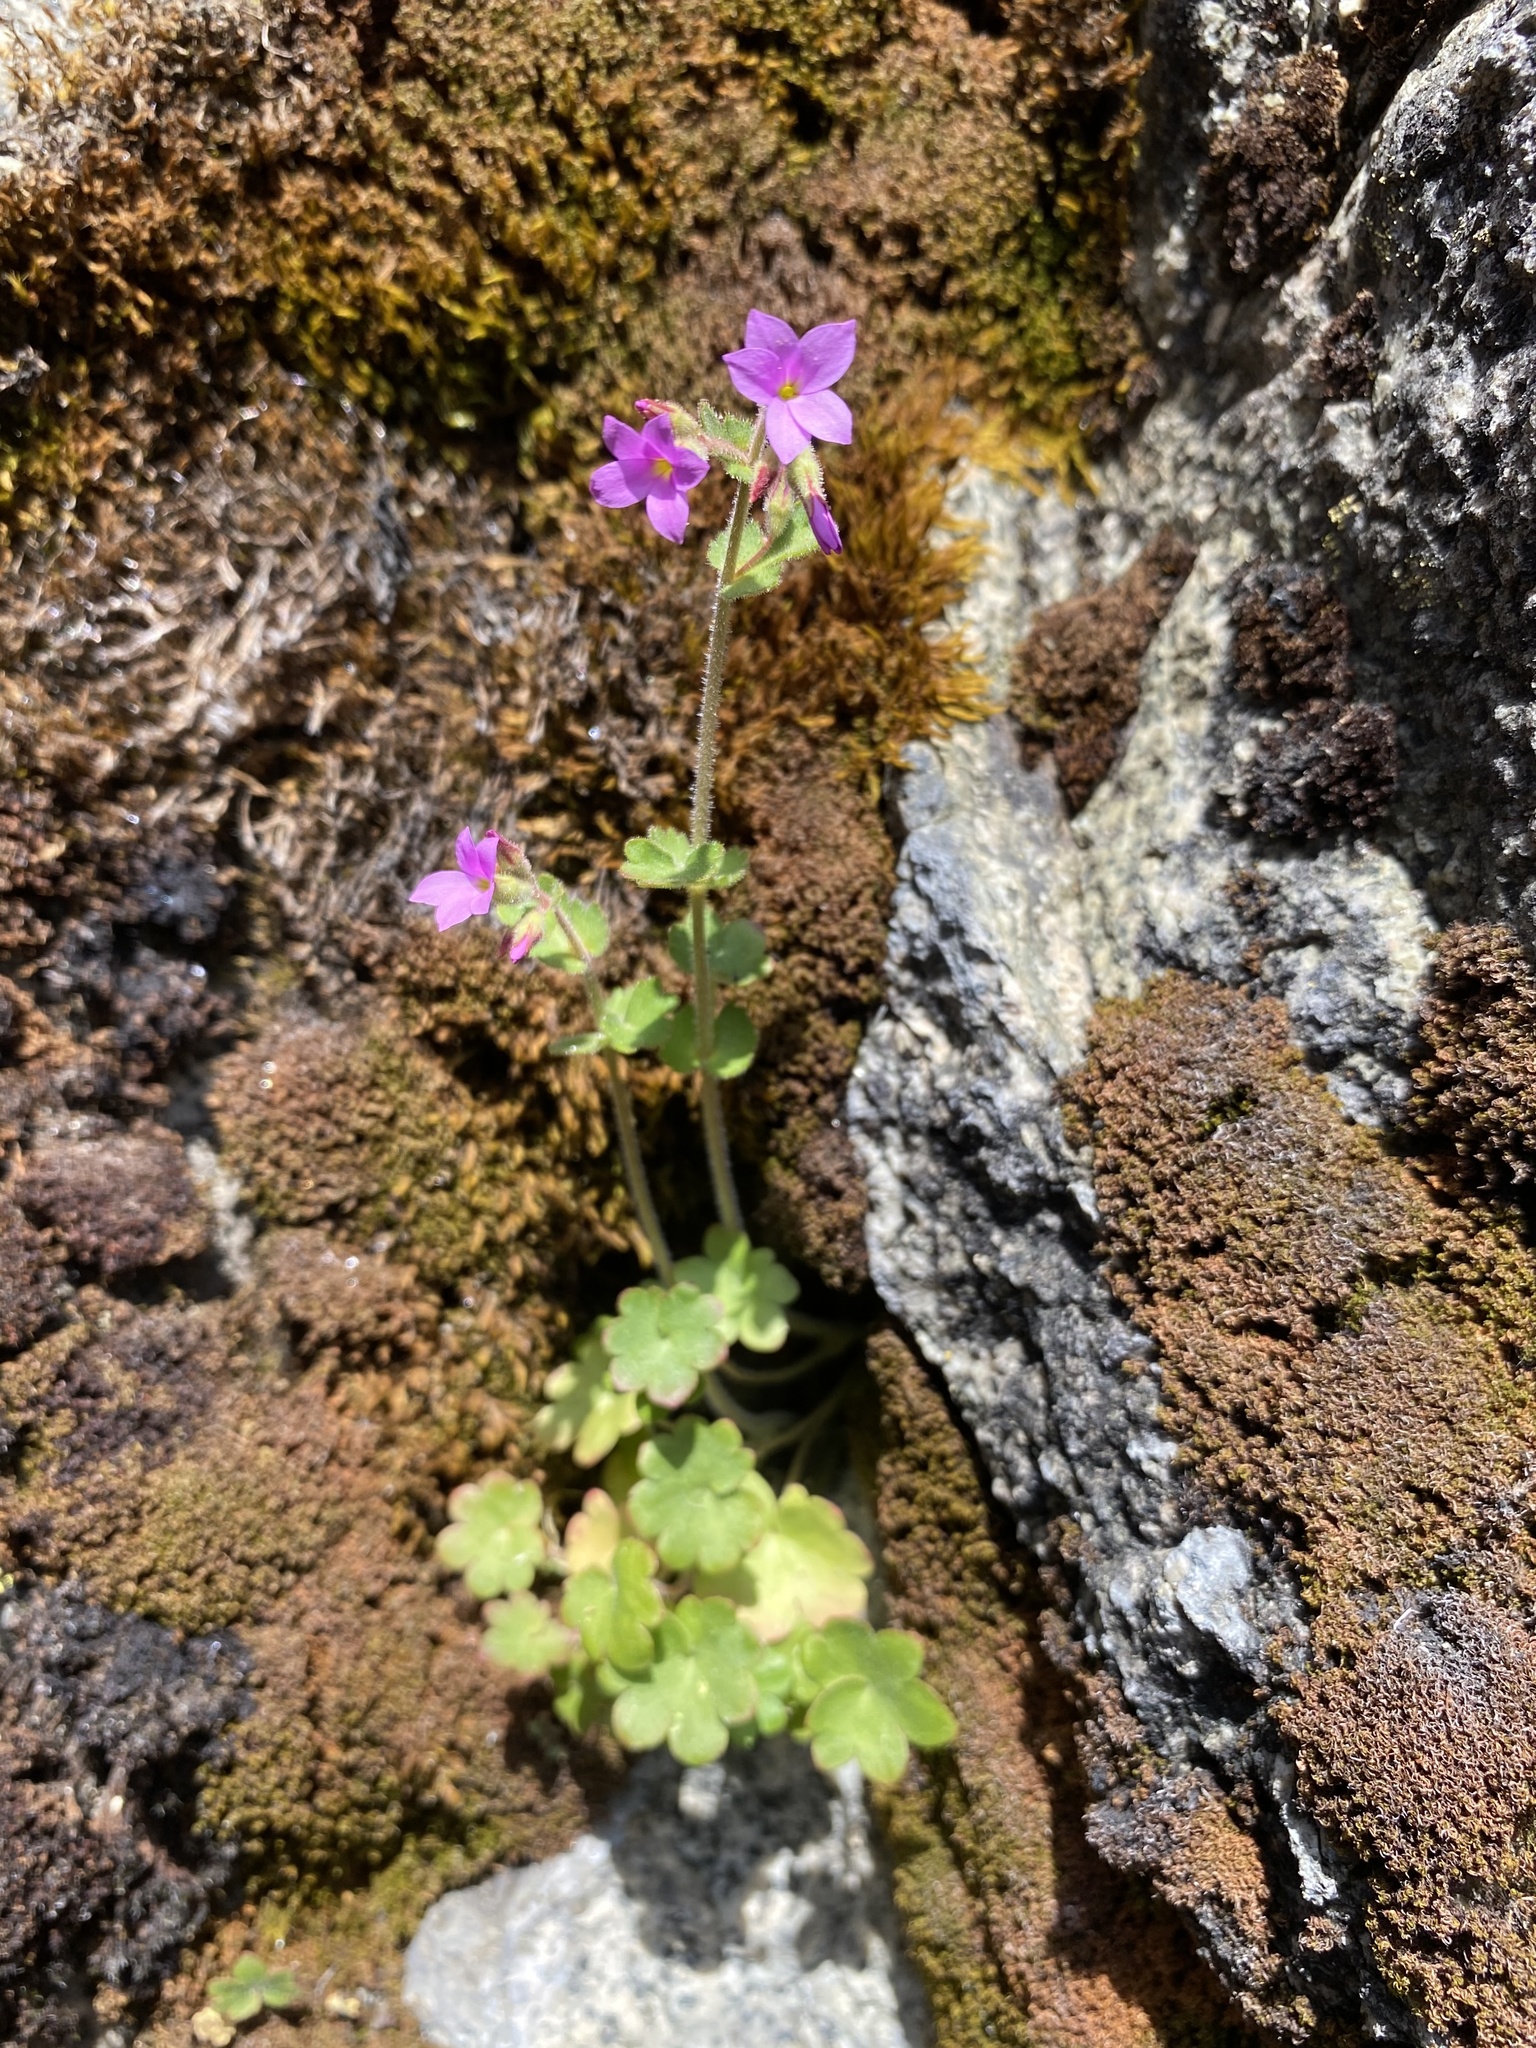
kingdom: Plantae
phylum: Tracheophyta
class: Magnoliopsida
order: Saxifragales
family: Saxifragaceae
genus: Suksdorfia
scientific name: Suksdorfia violacea
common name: Blue suksdorfia
